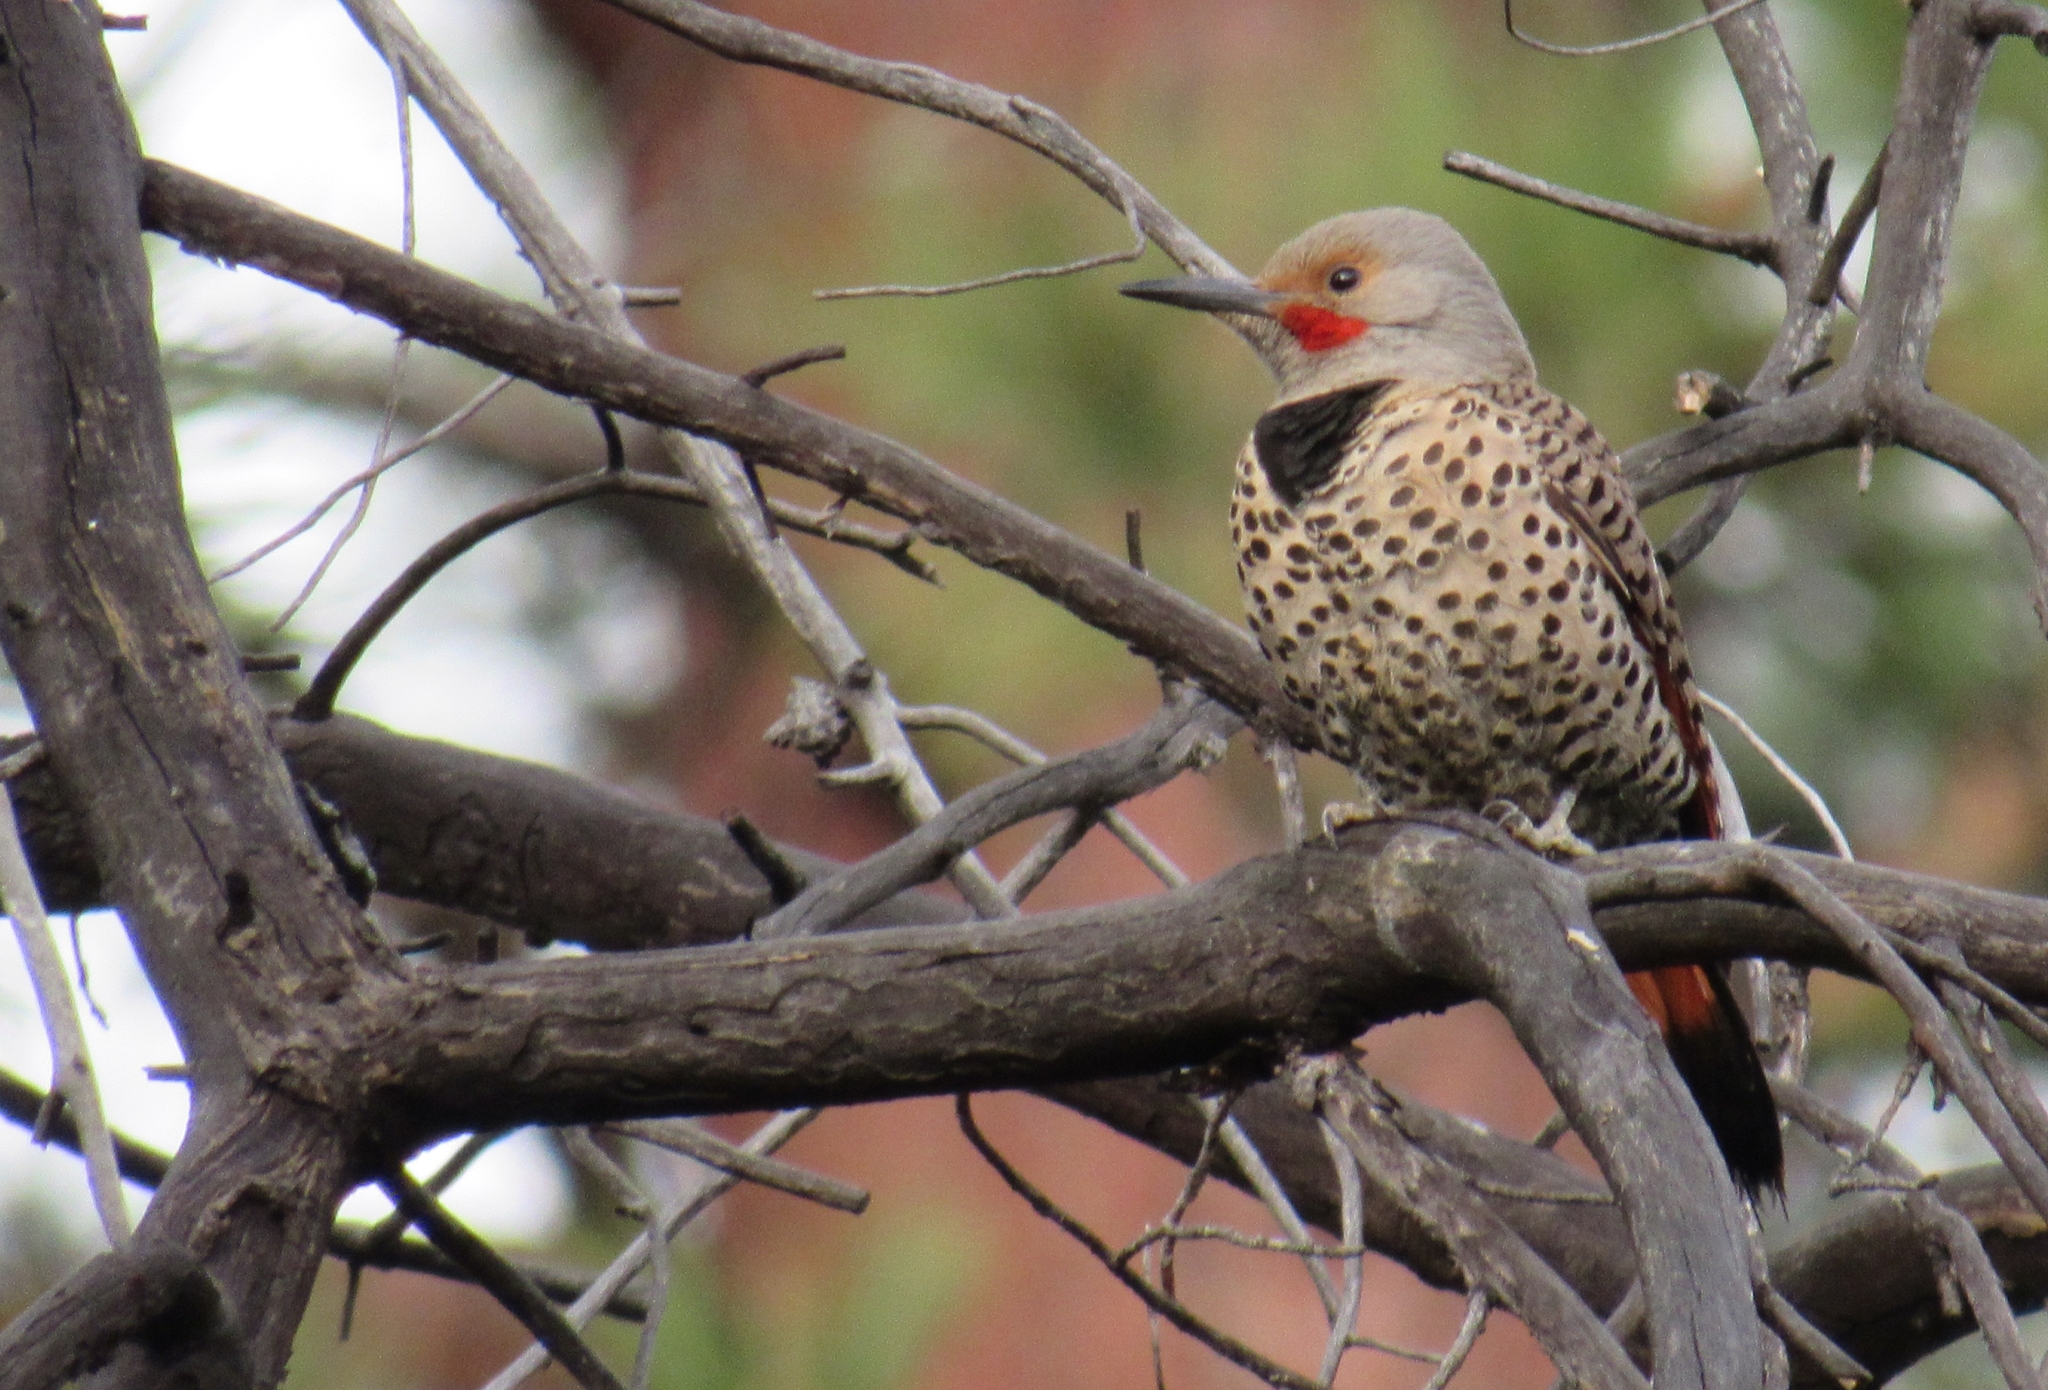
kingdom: Animalia
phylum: Chordata
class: Aves
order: Piciformes
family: Picidae
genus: Colaptes
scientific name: Colaptes auratus
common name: Northern flicker
